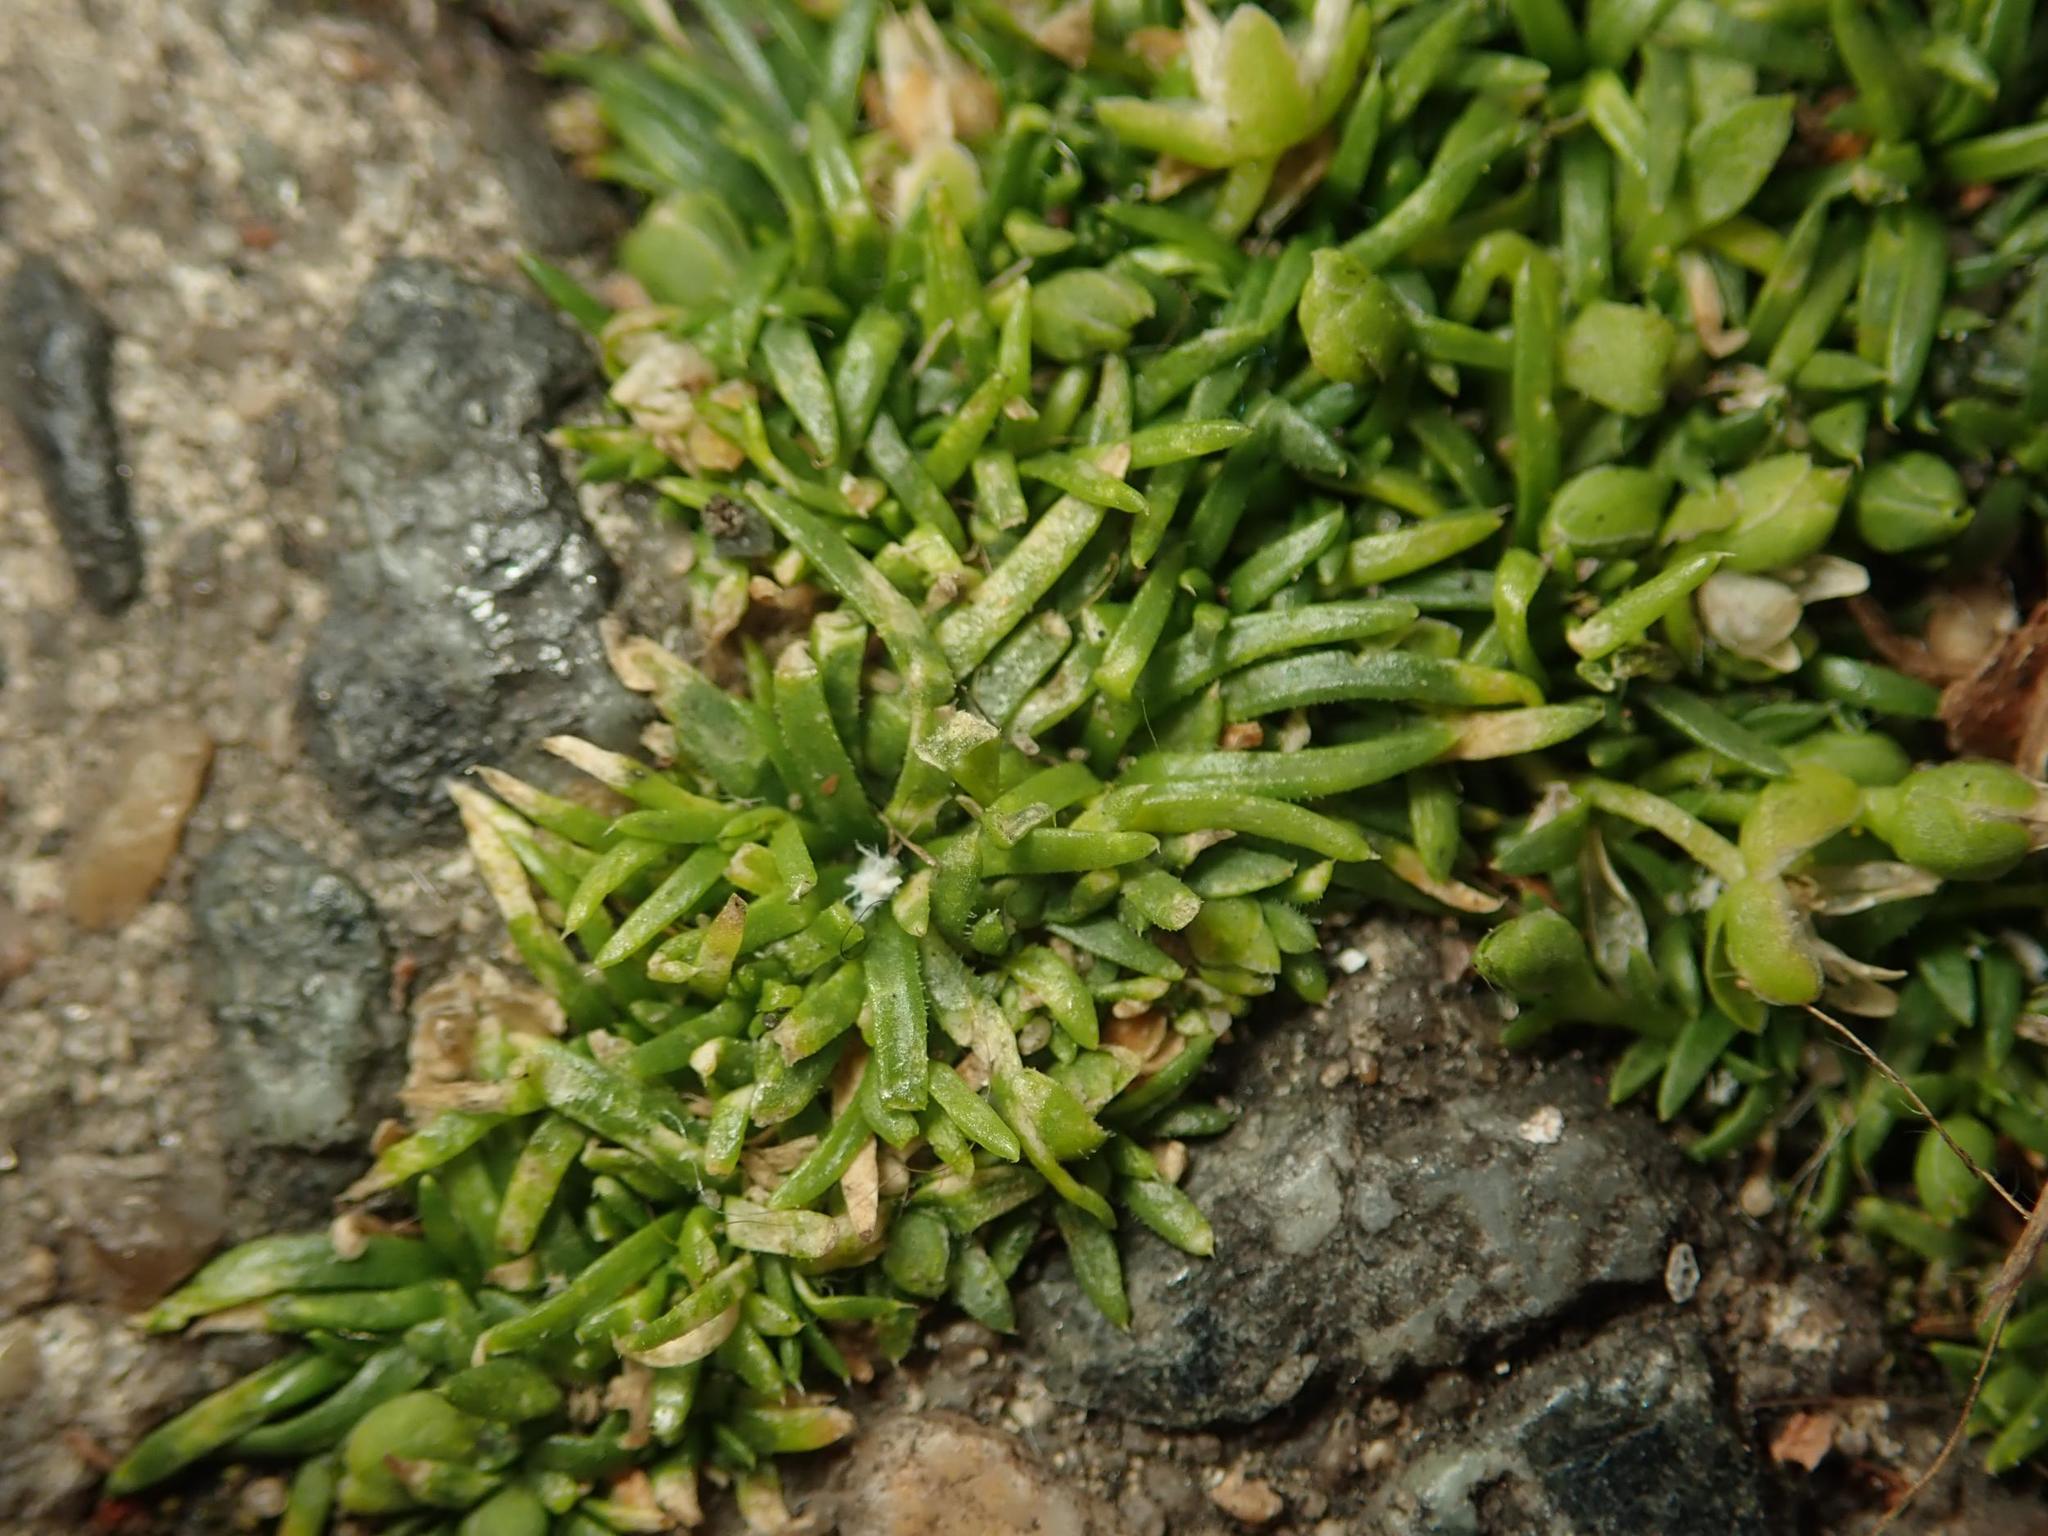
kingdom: Plantae
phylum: Tracheophyta
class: Magnoliopsida
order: Caryophyllales
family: Caryophyllaceae
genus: Sagina
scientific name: Sagina procumbens
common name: Procumbent pearlwort
